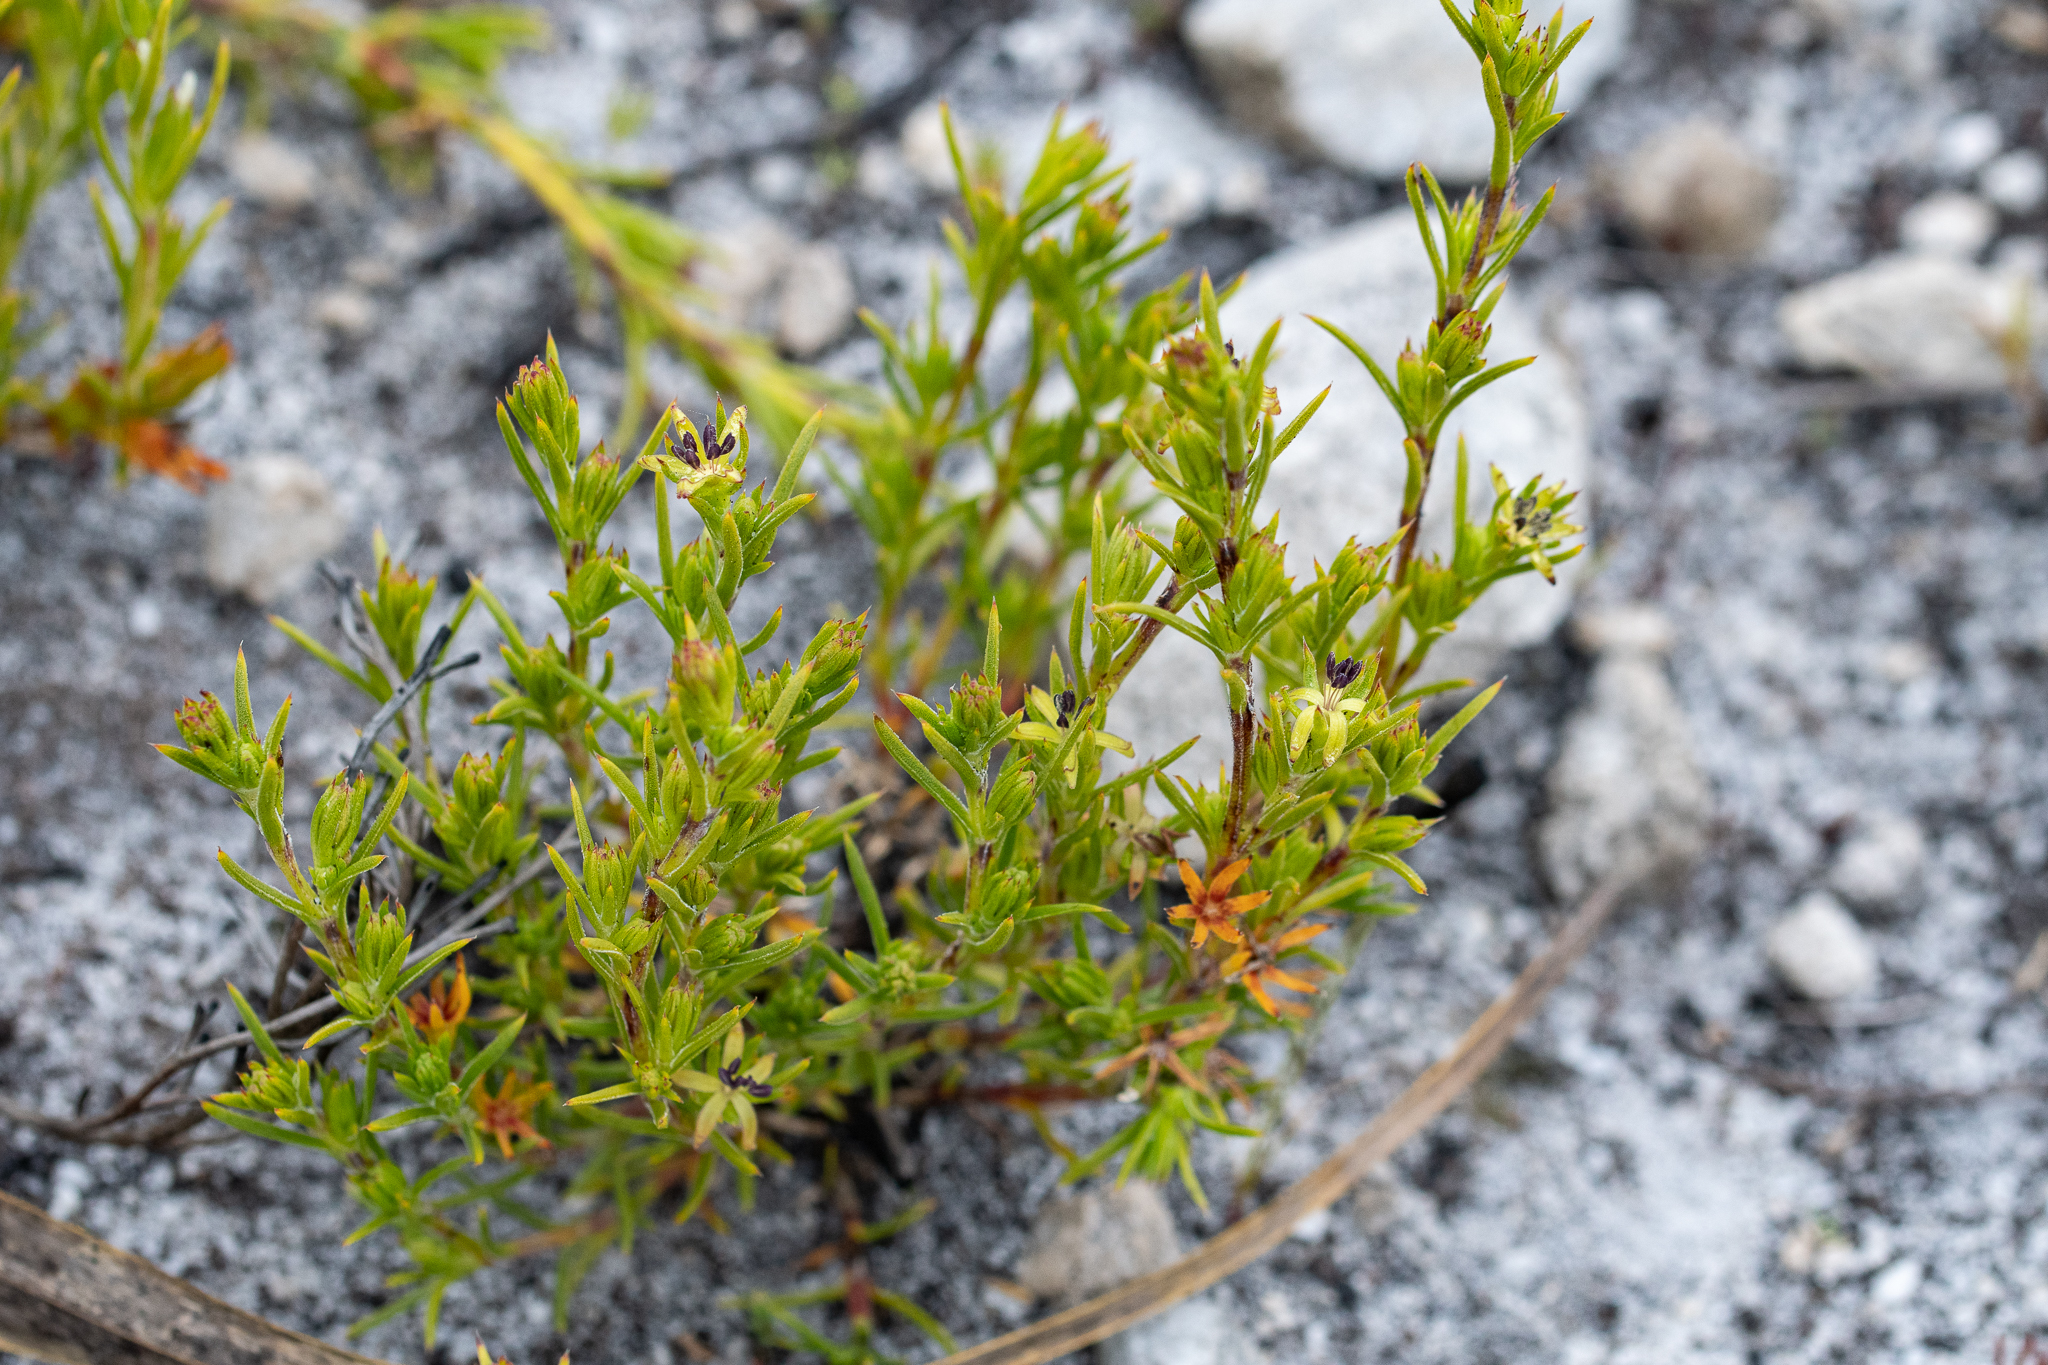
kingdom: Plantae
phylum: Tracheophyta
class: Magnoliopsida
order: Gentianales
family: Rubiaceae
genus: Carpacoce
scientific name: Carpacoce vaginellata
